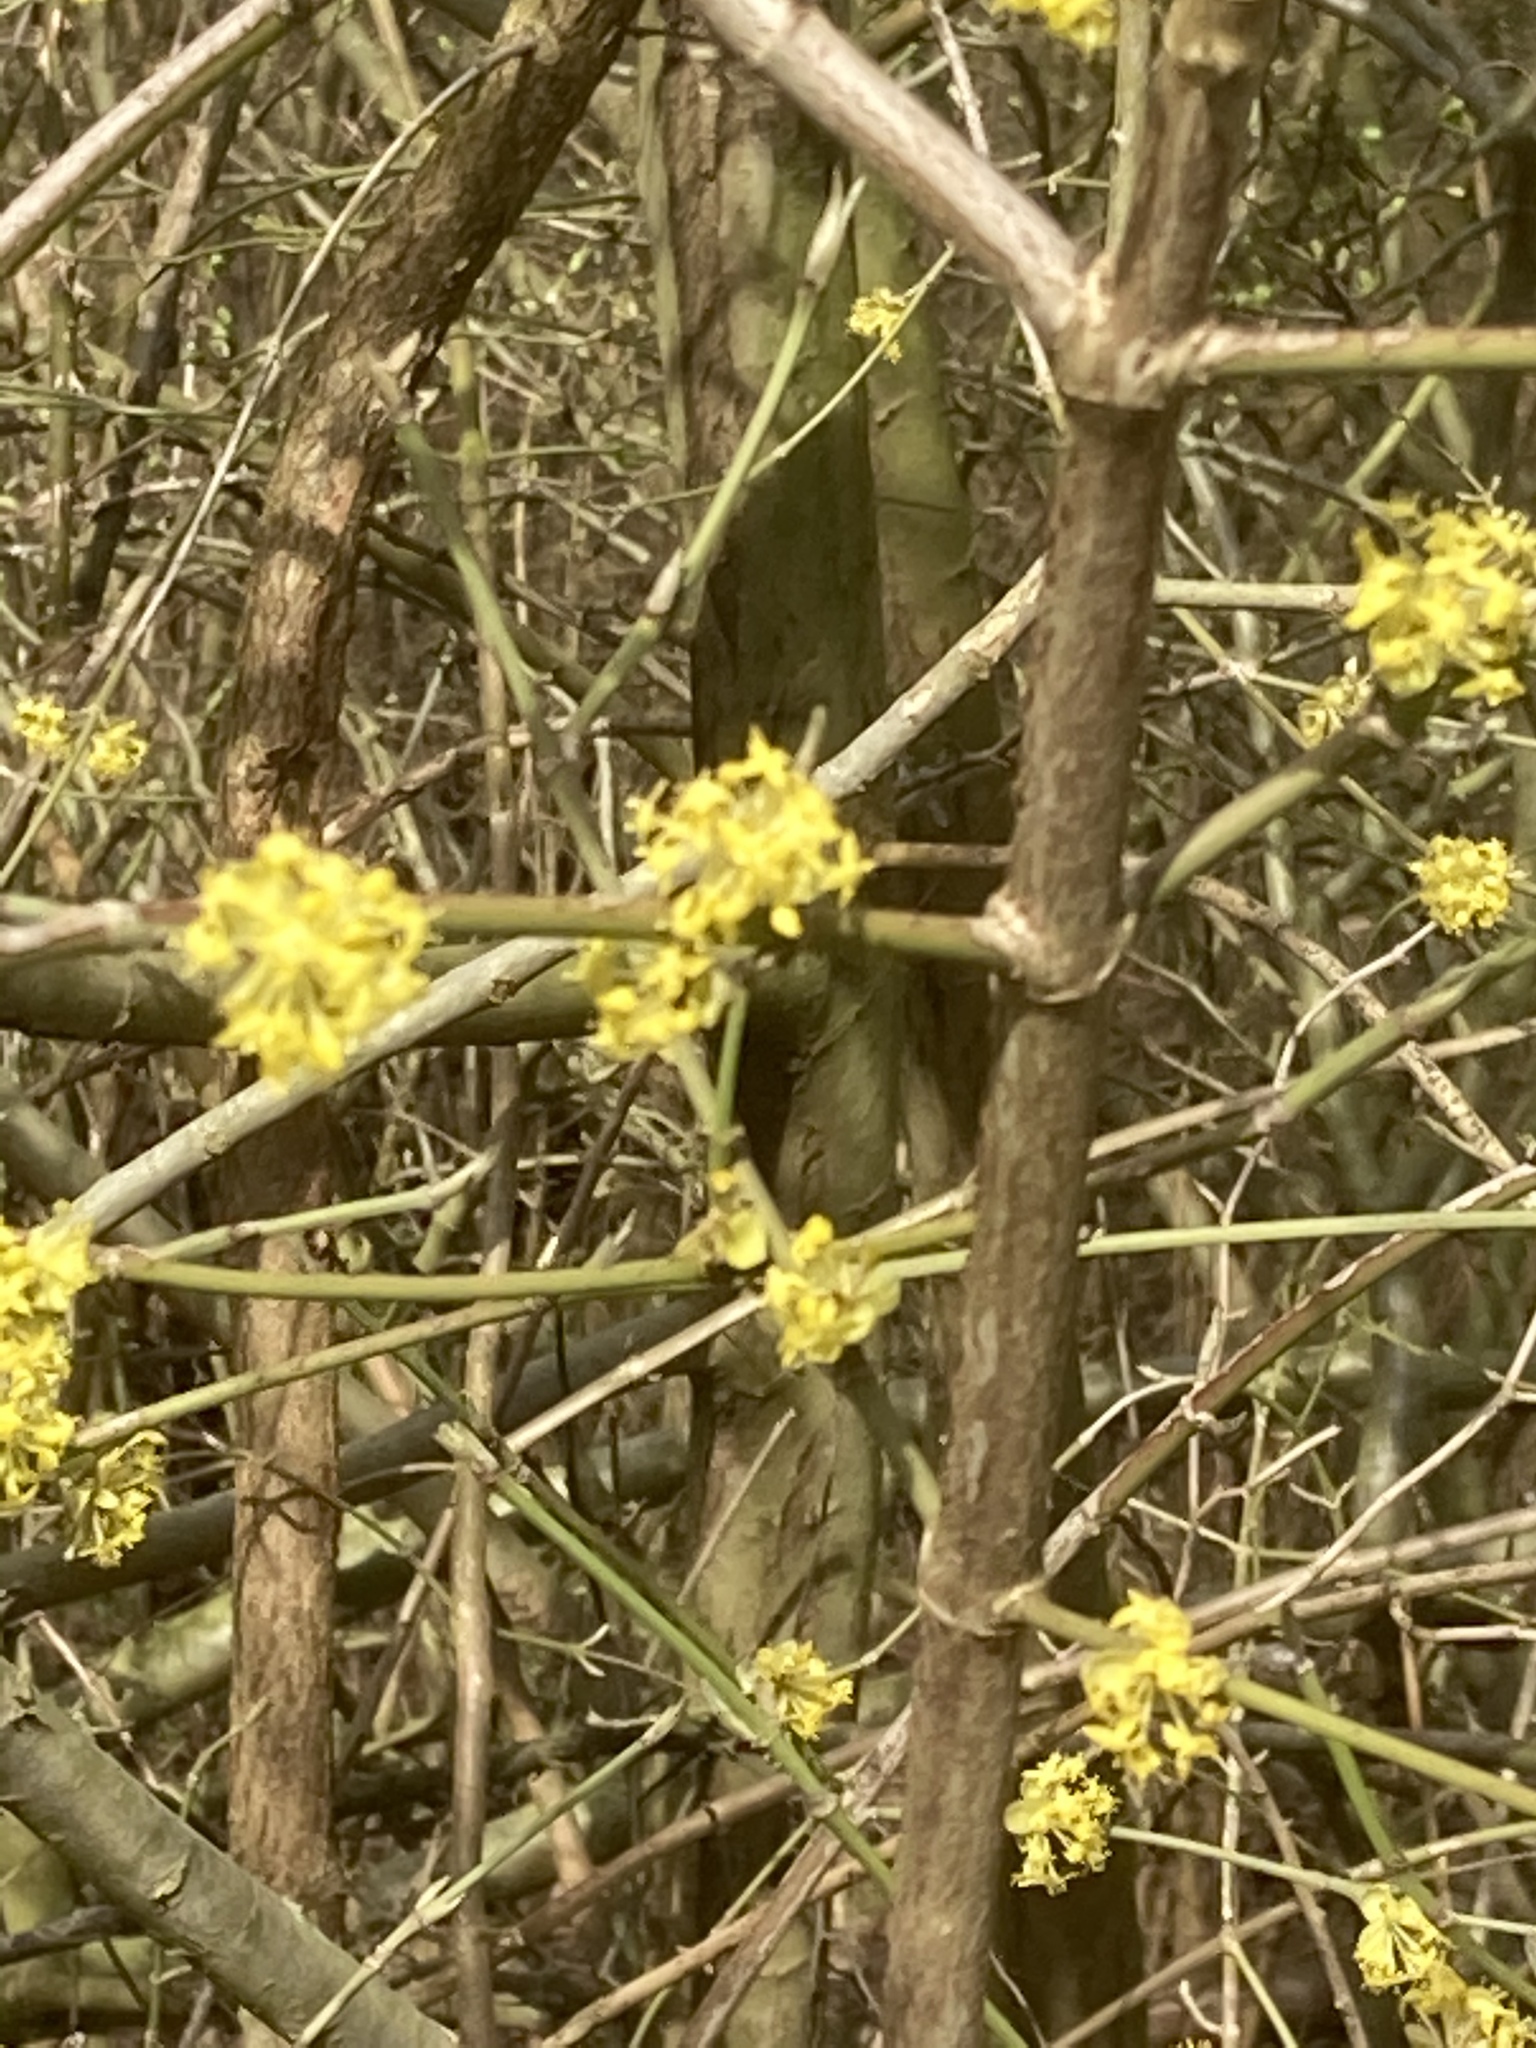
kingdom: Plantae
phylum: Tracheophyta
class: Magnoliopsida
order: Cornales
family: Cornaceae
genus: Cornus
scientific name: Cornus mas
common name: Cornelian-cherry
